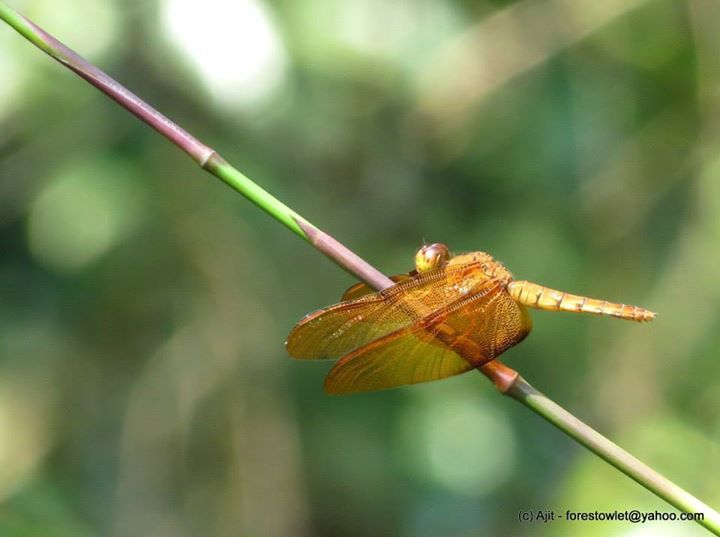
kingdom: Animalia
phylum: Arthropoda
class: Insecta
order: Odonata
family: Libellulidae
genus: Neurothemis
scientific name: Neurothemis fulvia
